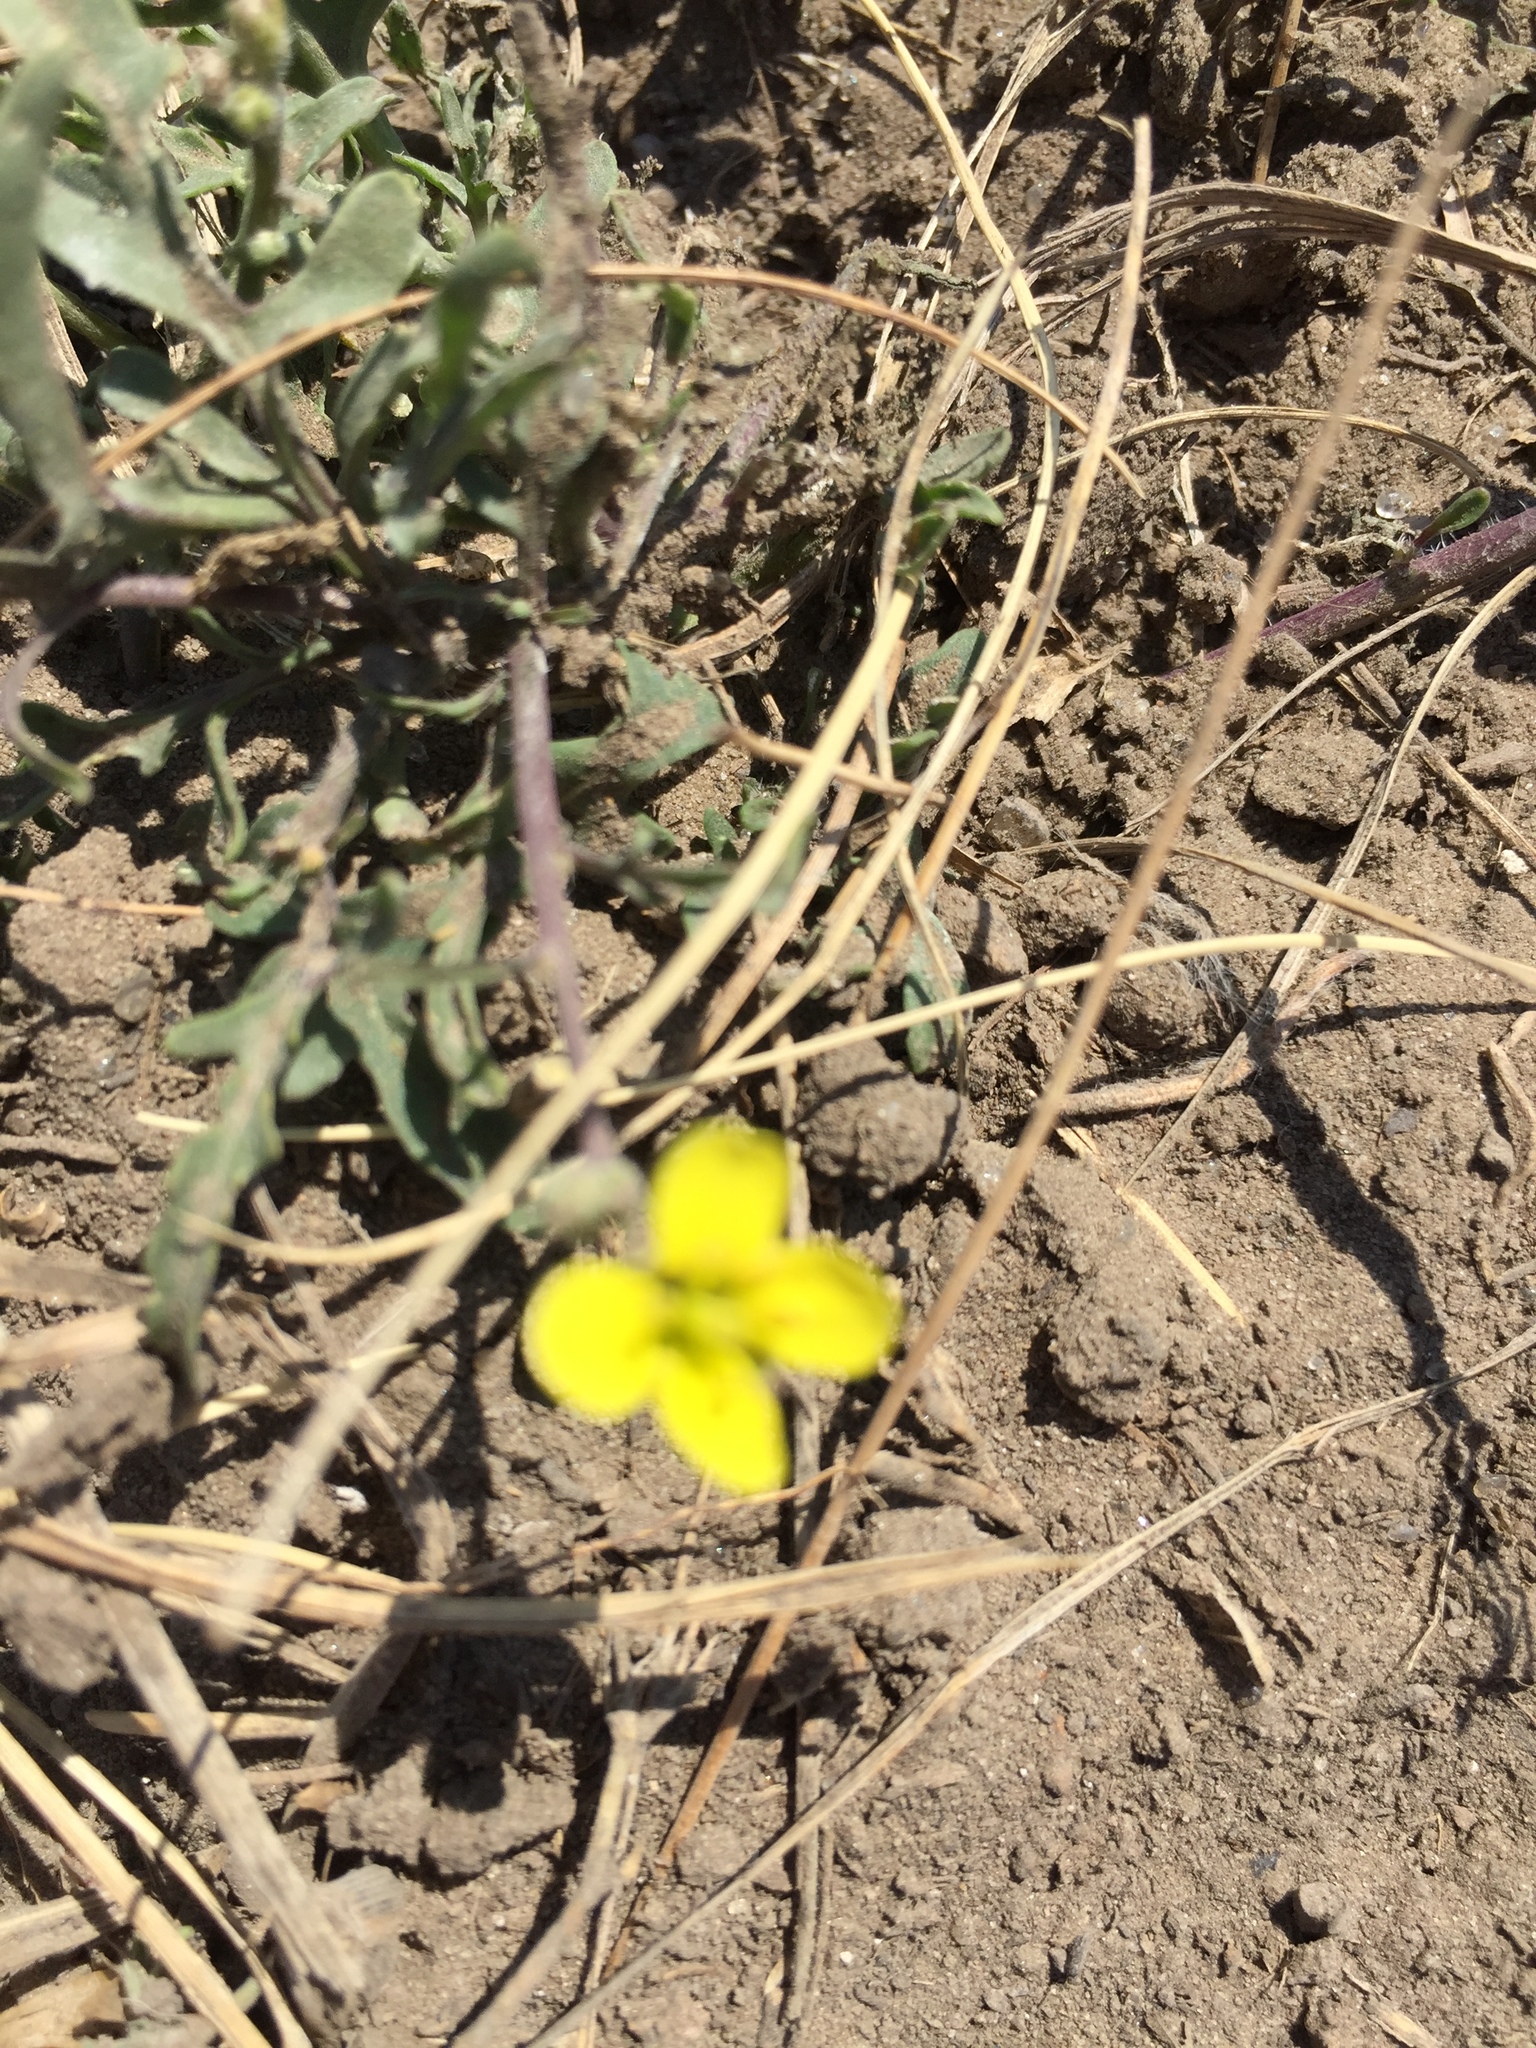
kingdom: Plantae
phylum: Tracheophyta
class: Magnoliopsida
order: Brassicales
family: Brassicaceae
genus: Diplotaxis
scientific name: Diplotaxis muralis
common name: Annual wall-rocket
